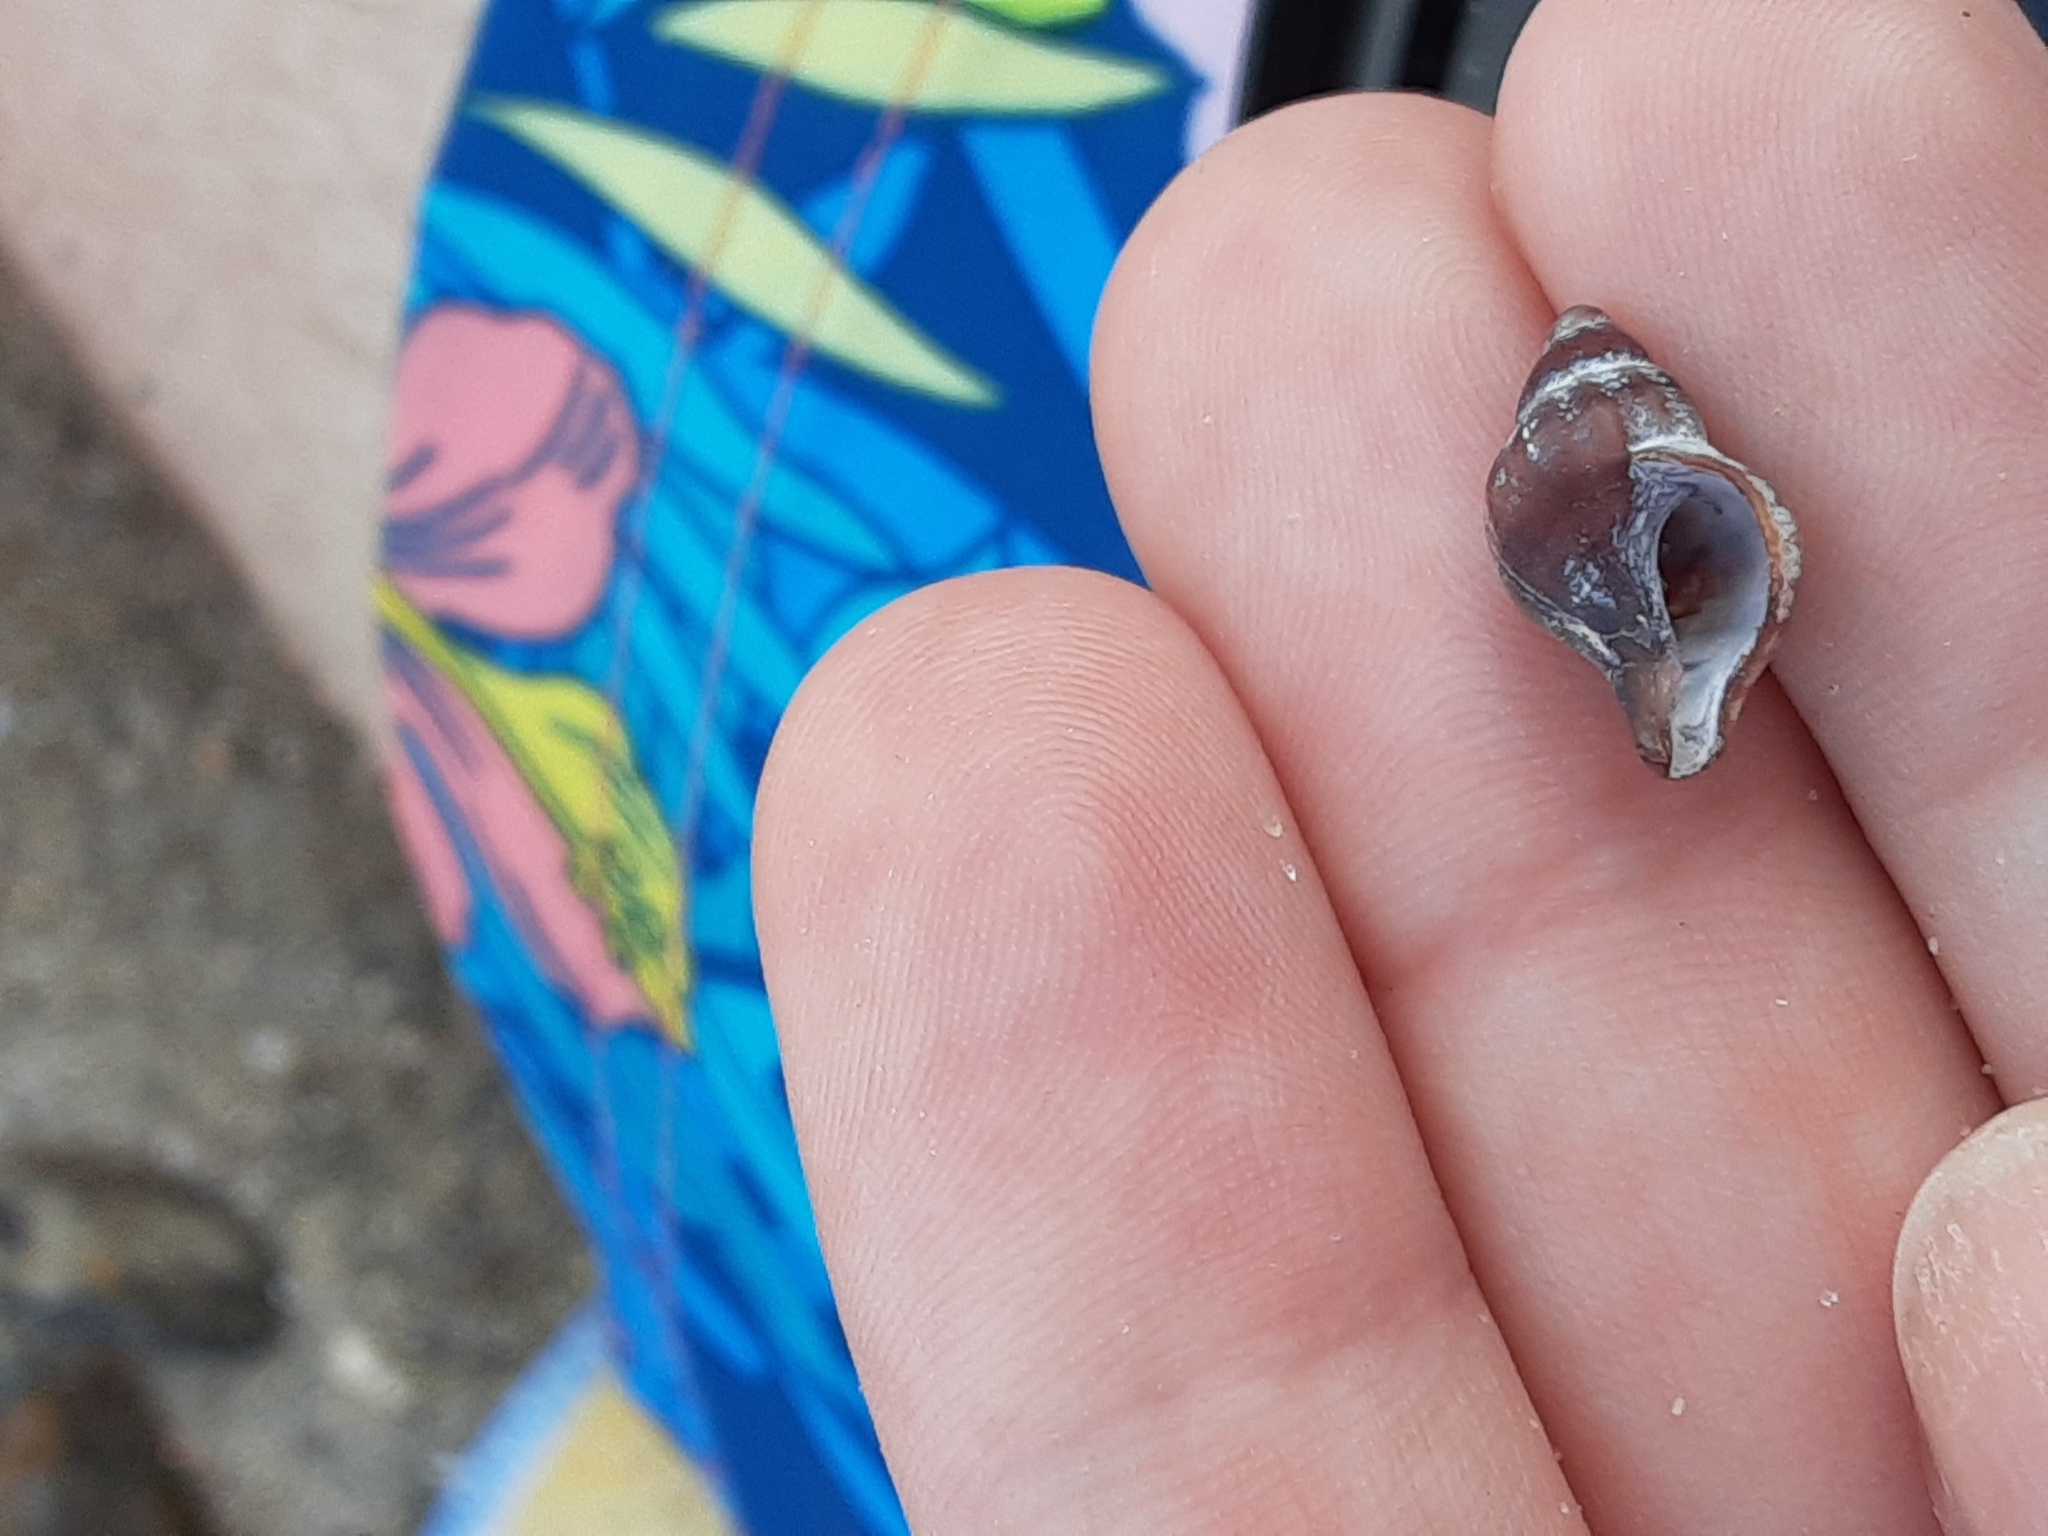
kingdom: Animalia
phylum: Mollusca
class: Gastropoda
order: Neogastropoda
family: Muricidae
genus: Urosalpinx
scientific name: Urosalpinx cinerea
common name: American sting winkle
